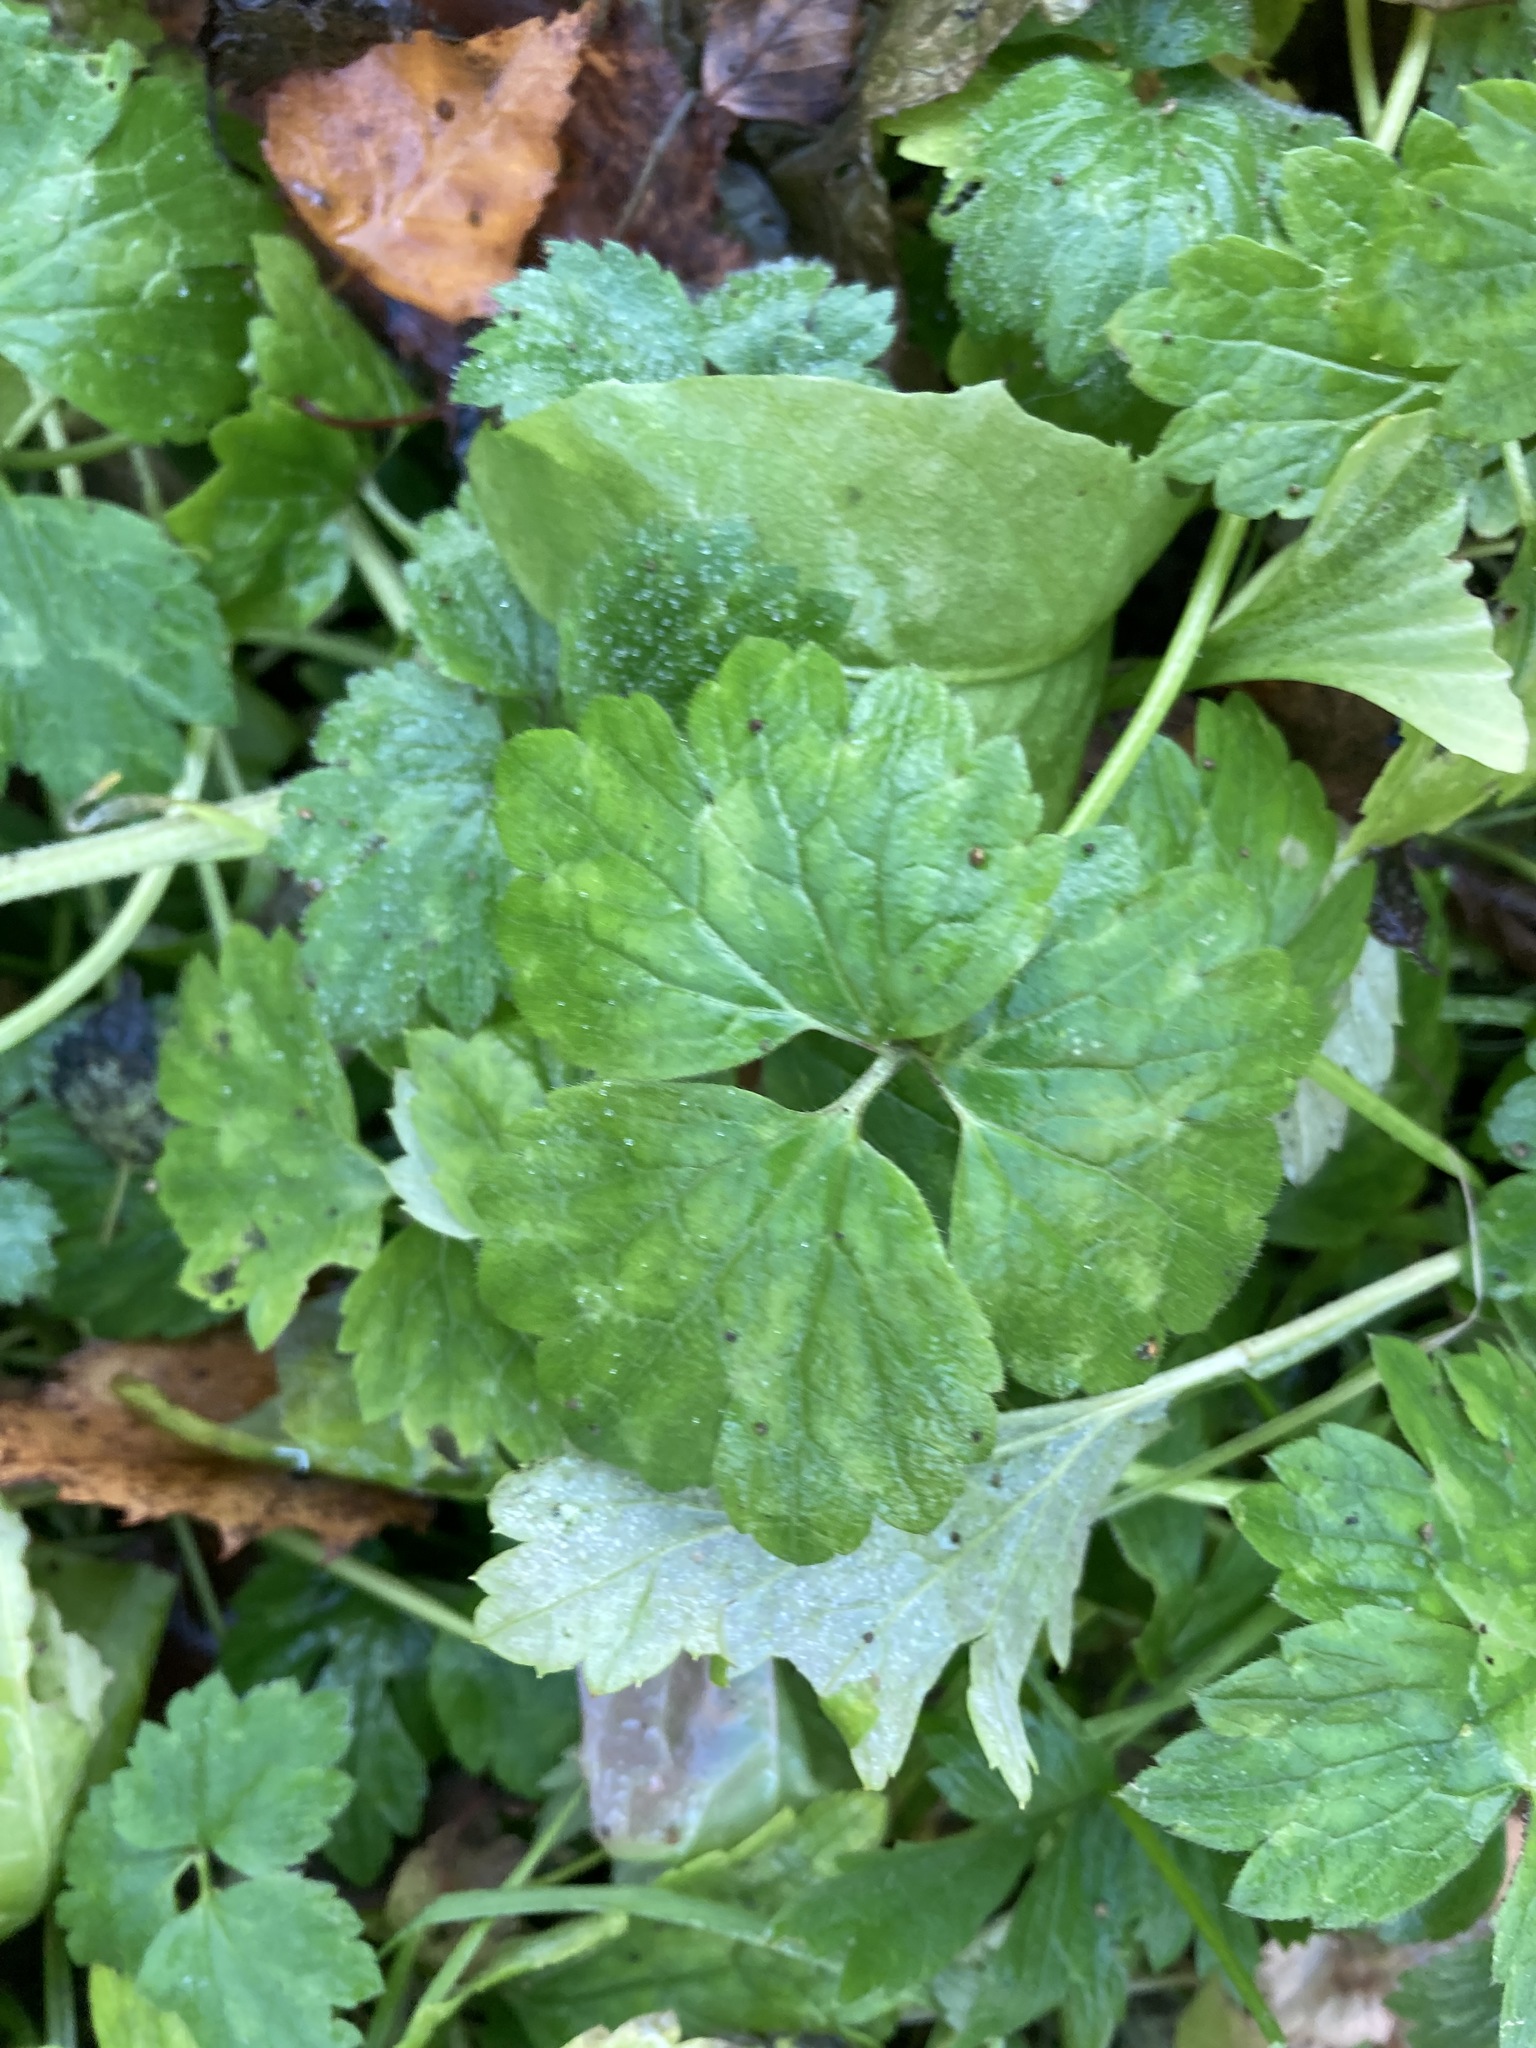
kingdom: Plantae
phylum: Tracheophyta
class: Magnoliopsida
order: Ranunculales
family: Ranunculaceae
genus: Ranunculus
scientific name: Ranunculus repens
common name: Creeping buttercup
